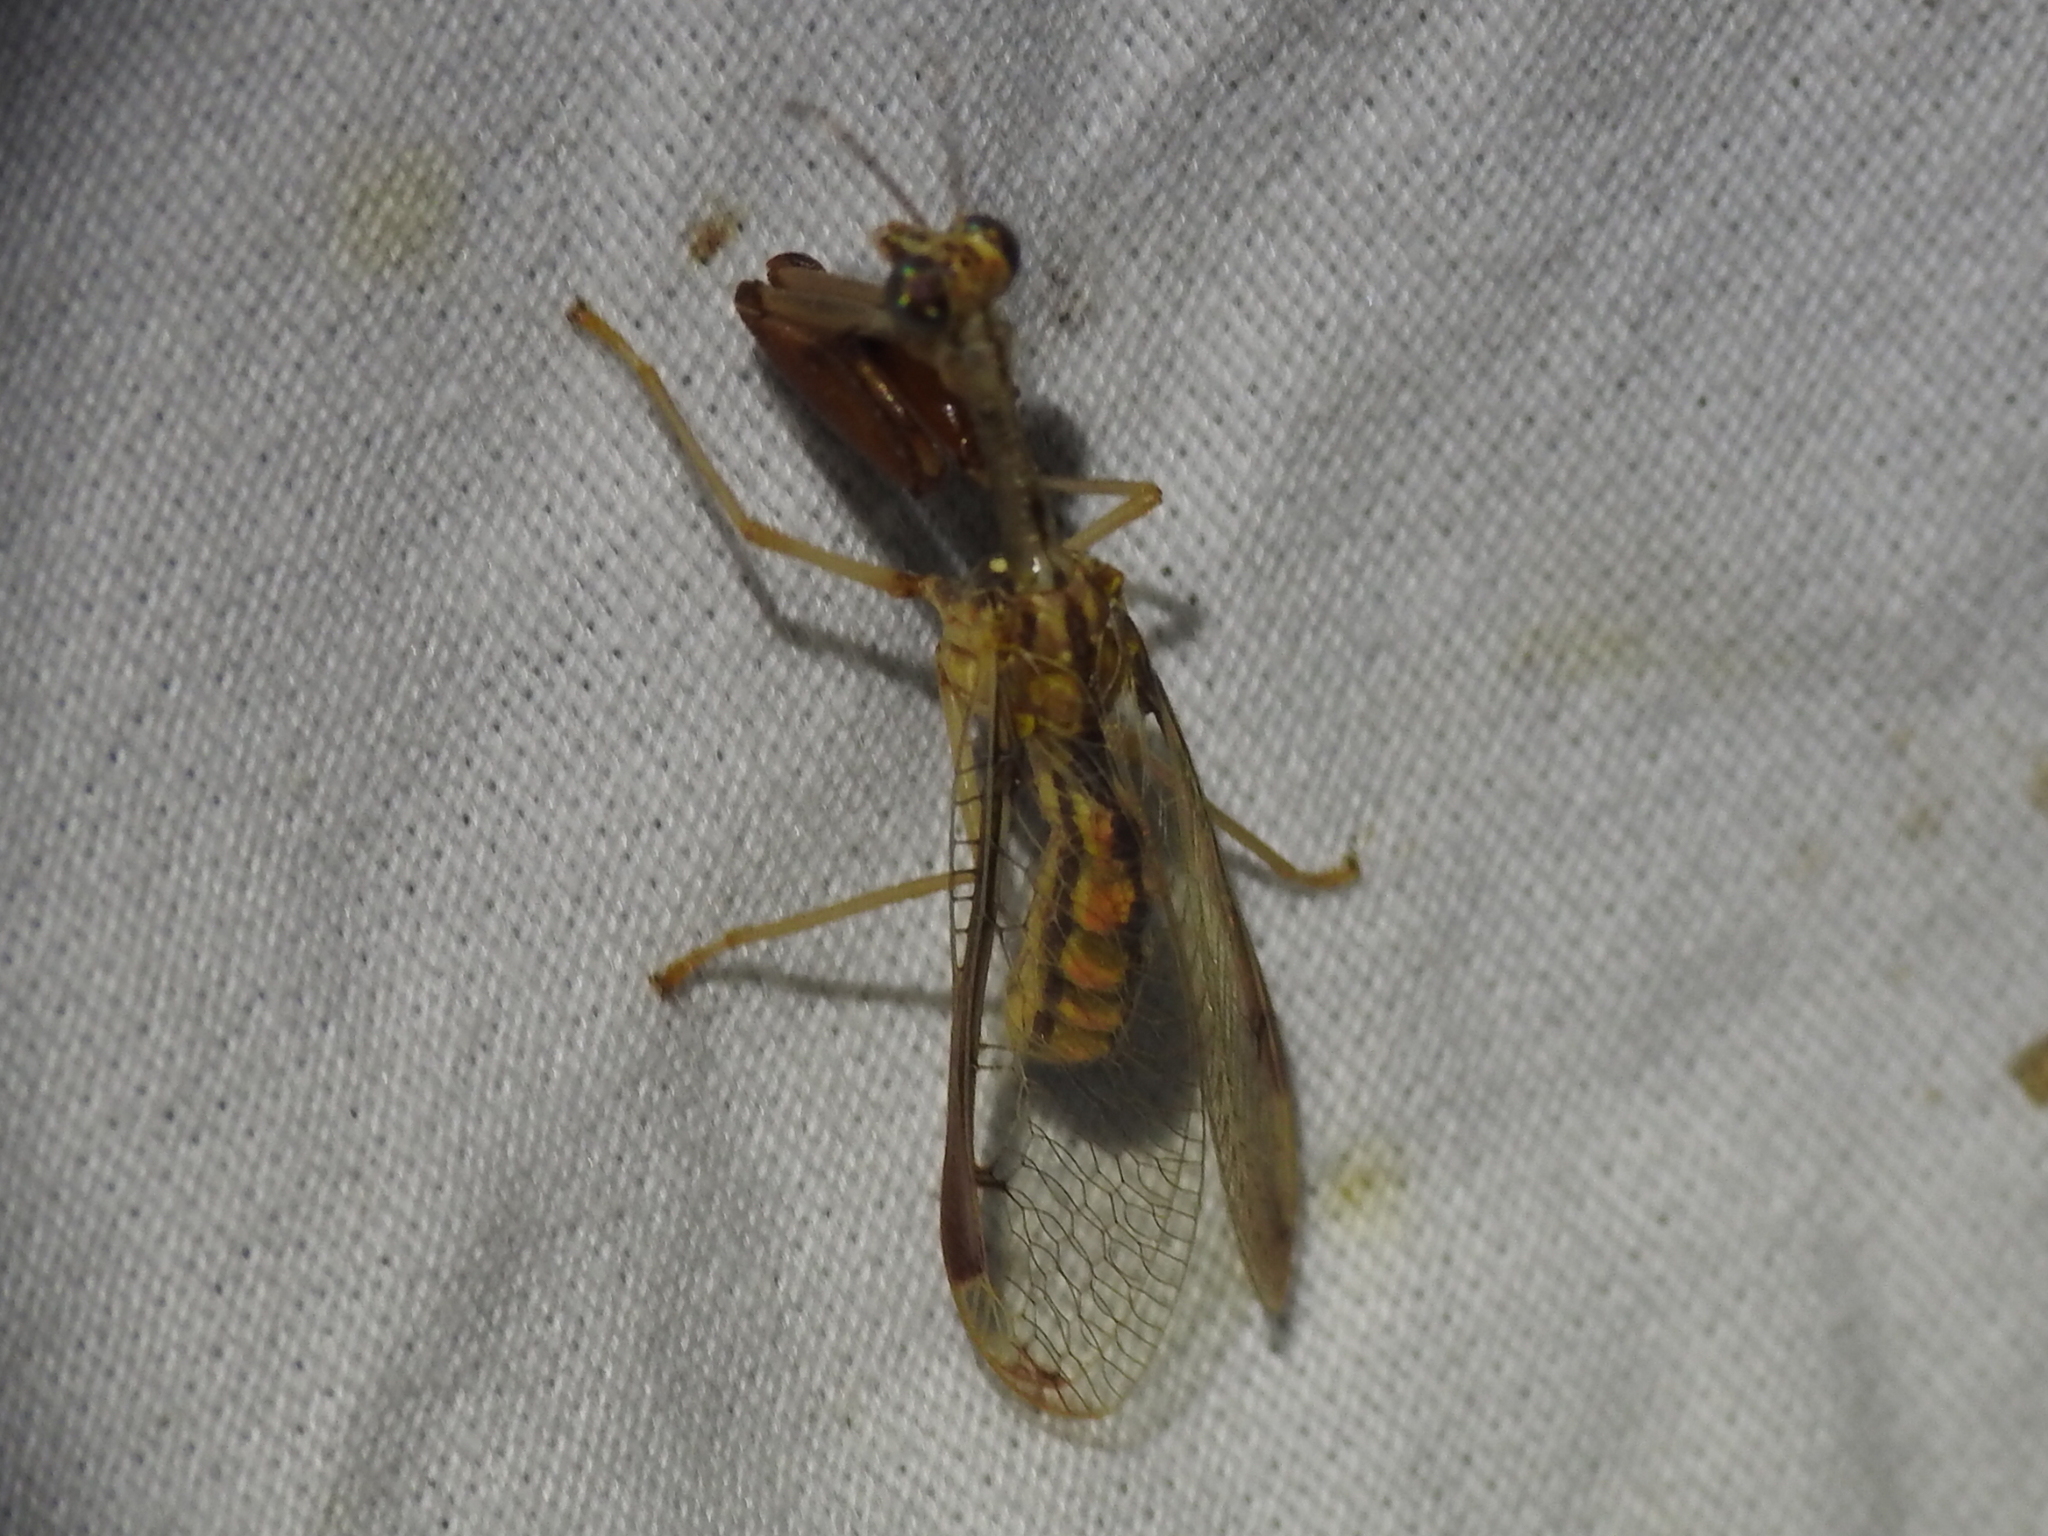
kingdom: Animalia
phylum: Arthropoda
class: Insecta
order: Neuroptera
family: Mantispidae
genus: Dicromantispa
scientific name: Dicromantispa interrupta
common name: Four-spotted mantidfly
